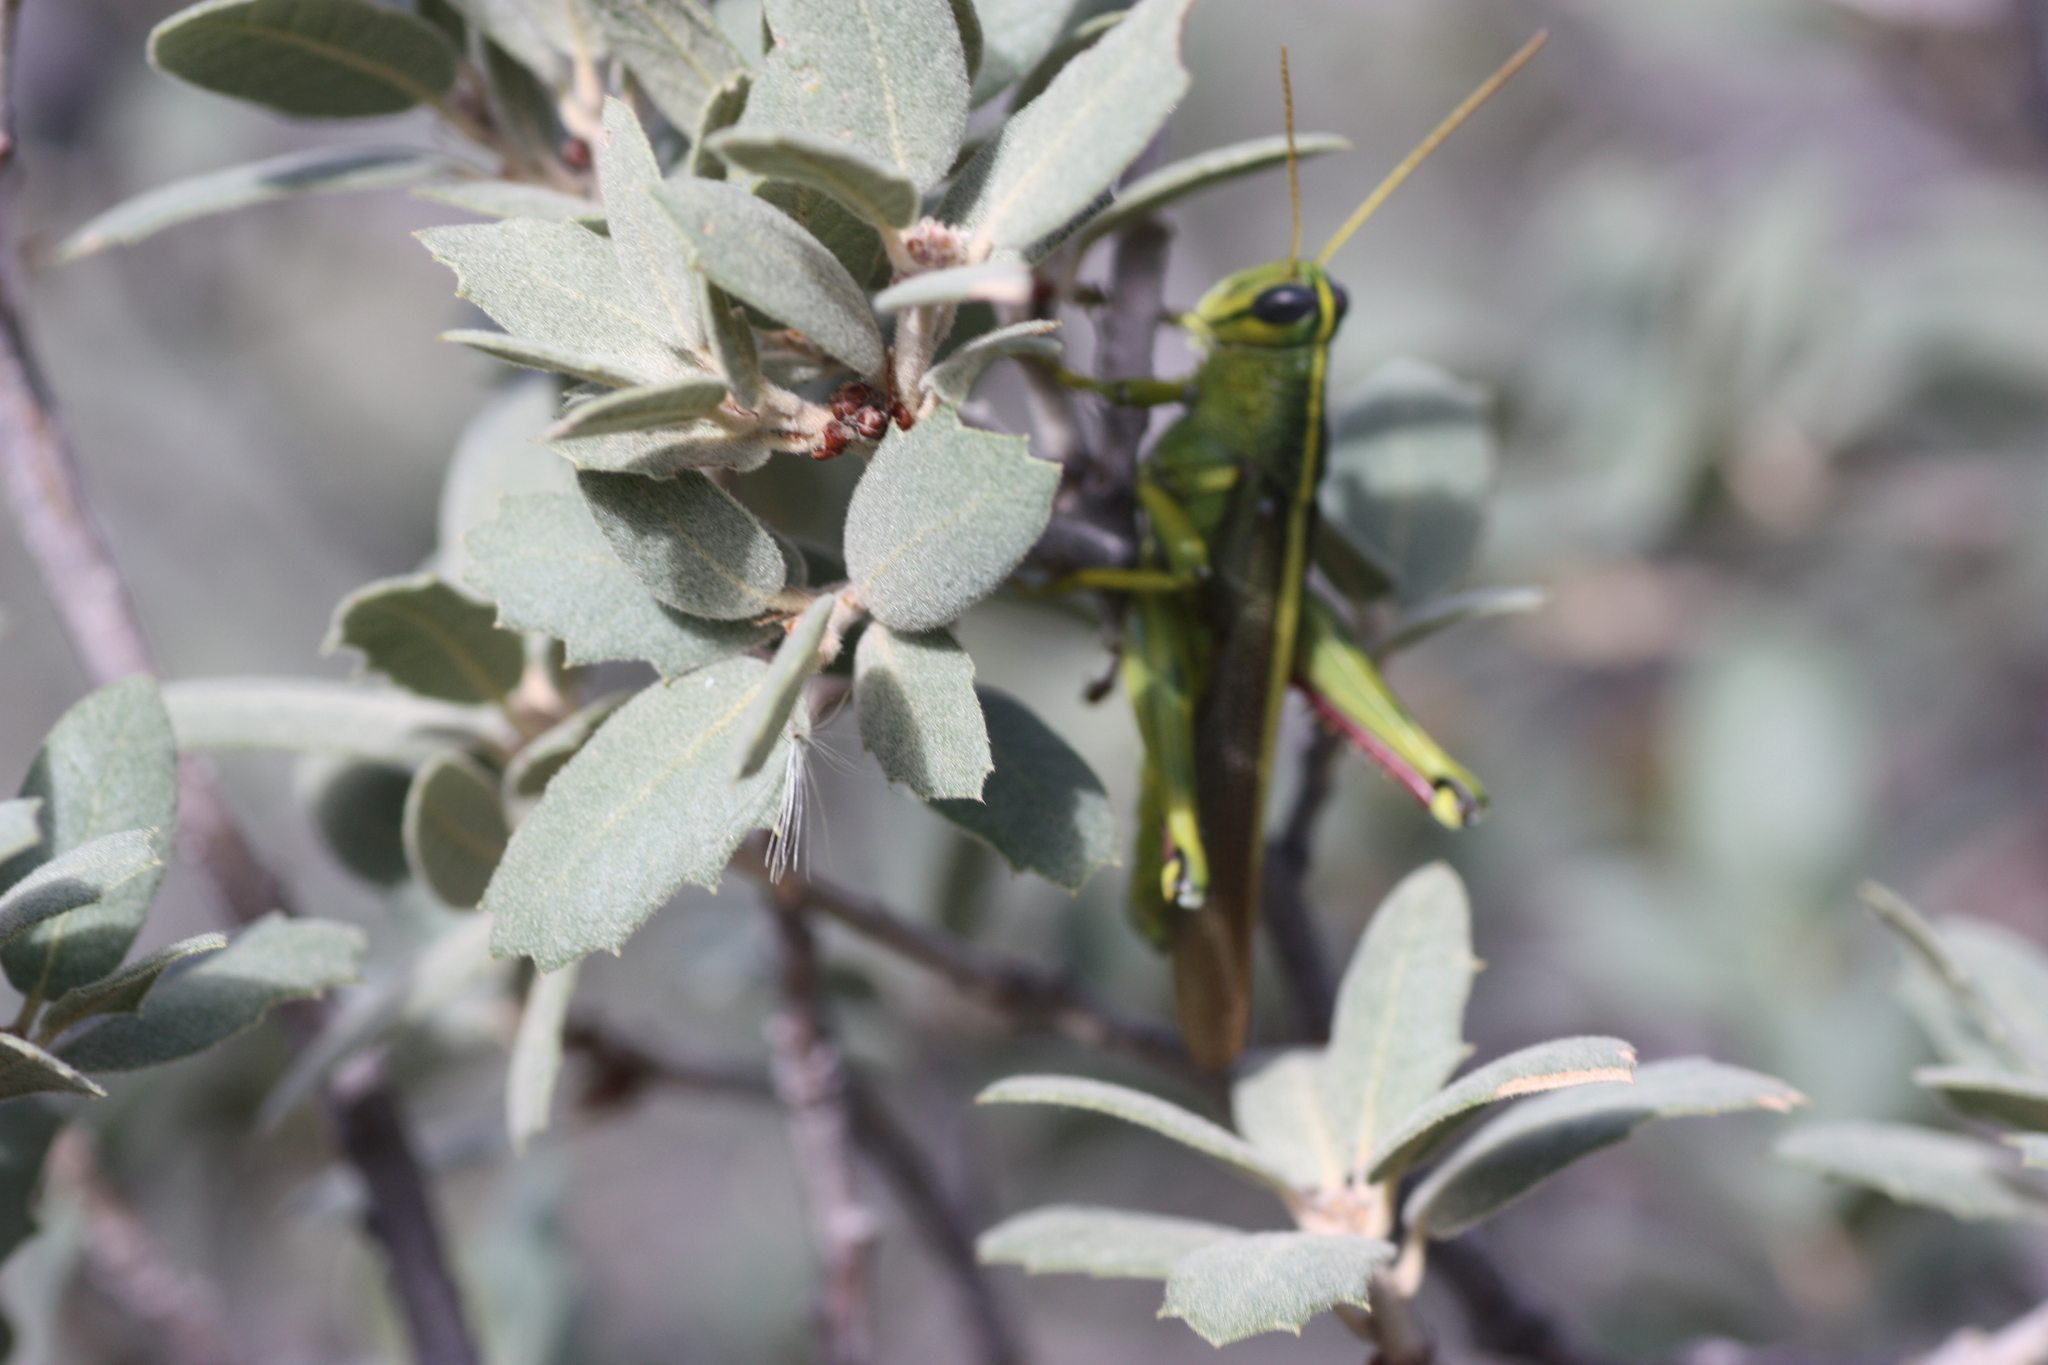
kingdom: Animalia
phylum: Arthropoda
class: Insecta
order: Orthoptera
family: Acrididae
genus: Schistocerca
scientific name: Schistocerca lineata
